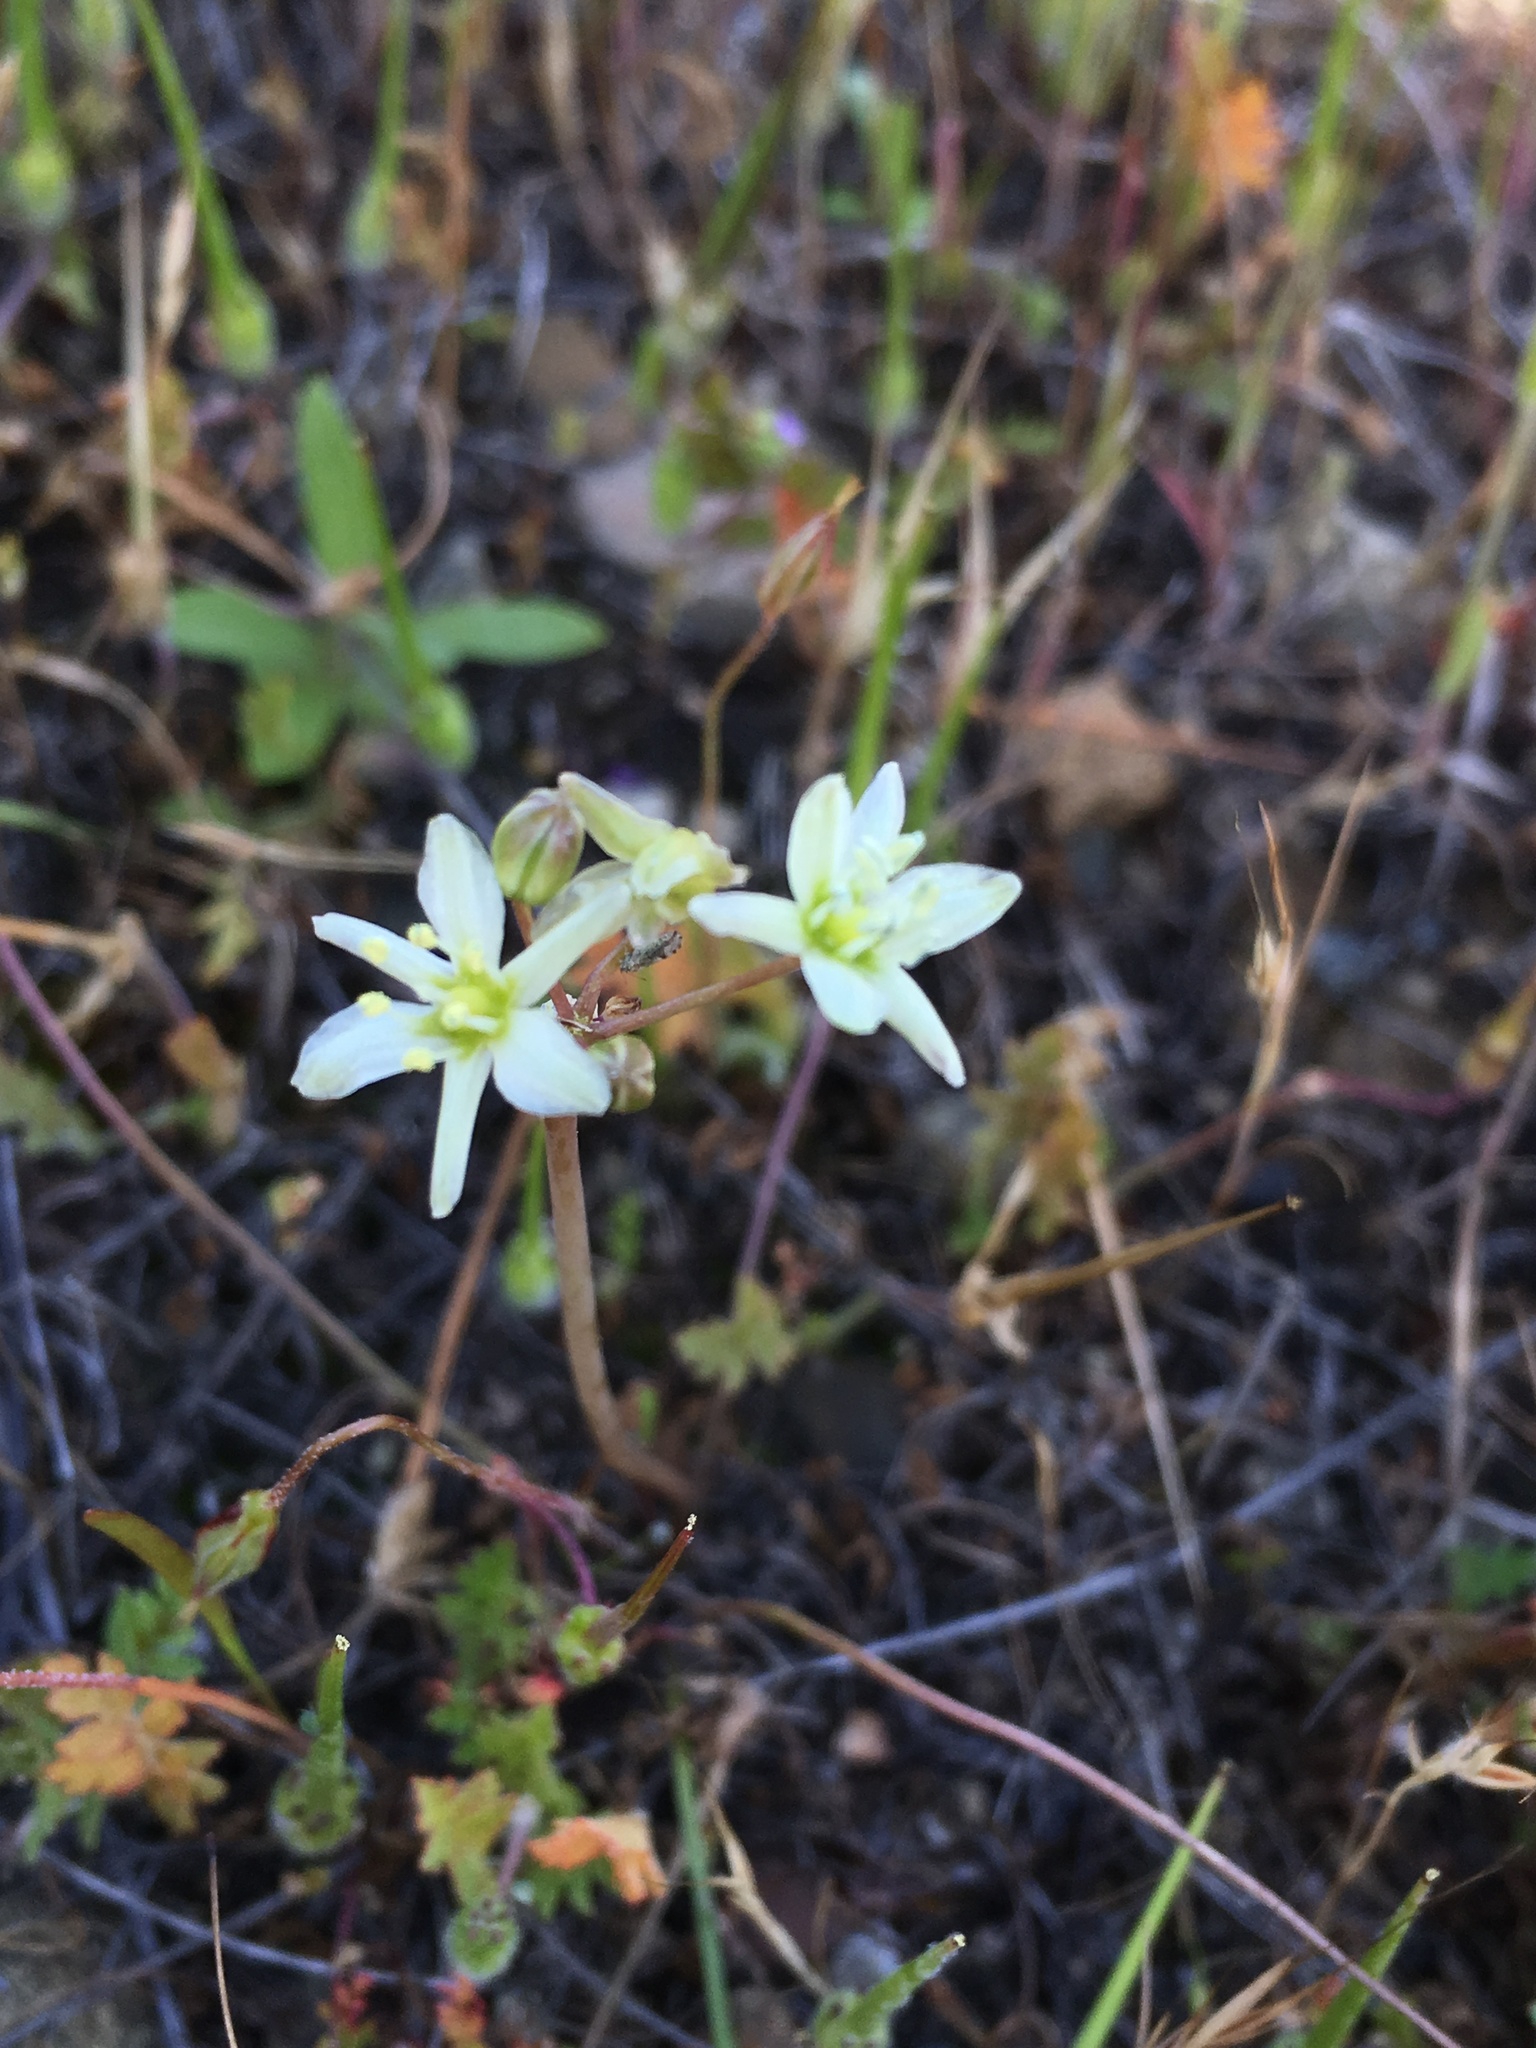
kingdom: Plantae
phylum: Tracheophyta
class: Liliopsida
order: Asparagales
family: Asparagaceae
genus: Muilla
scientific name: Muilla maritima
